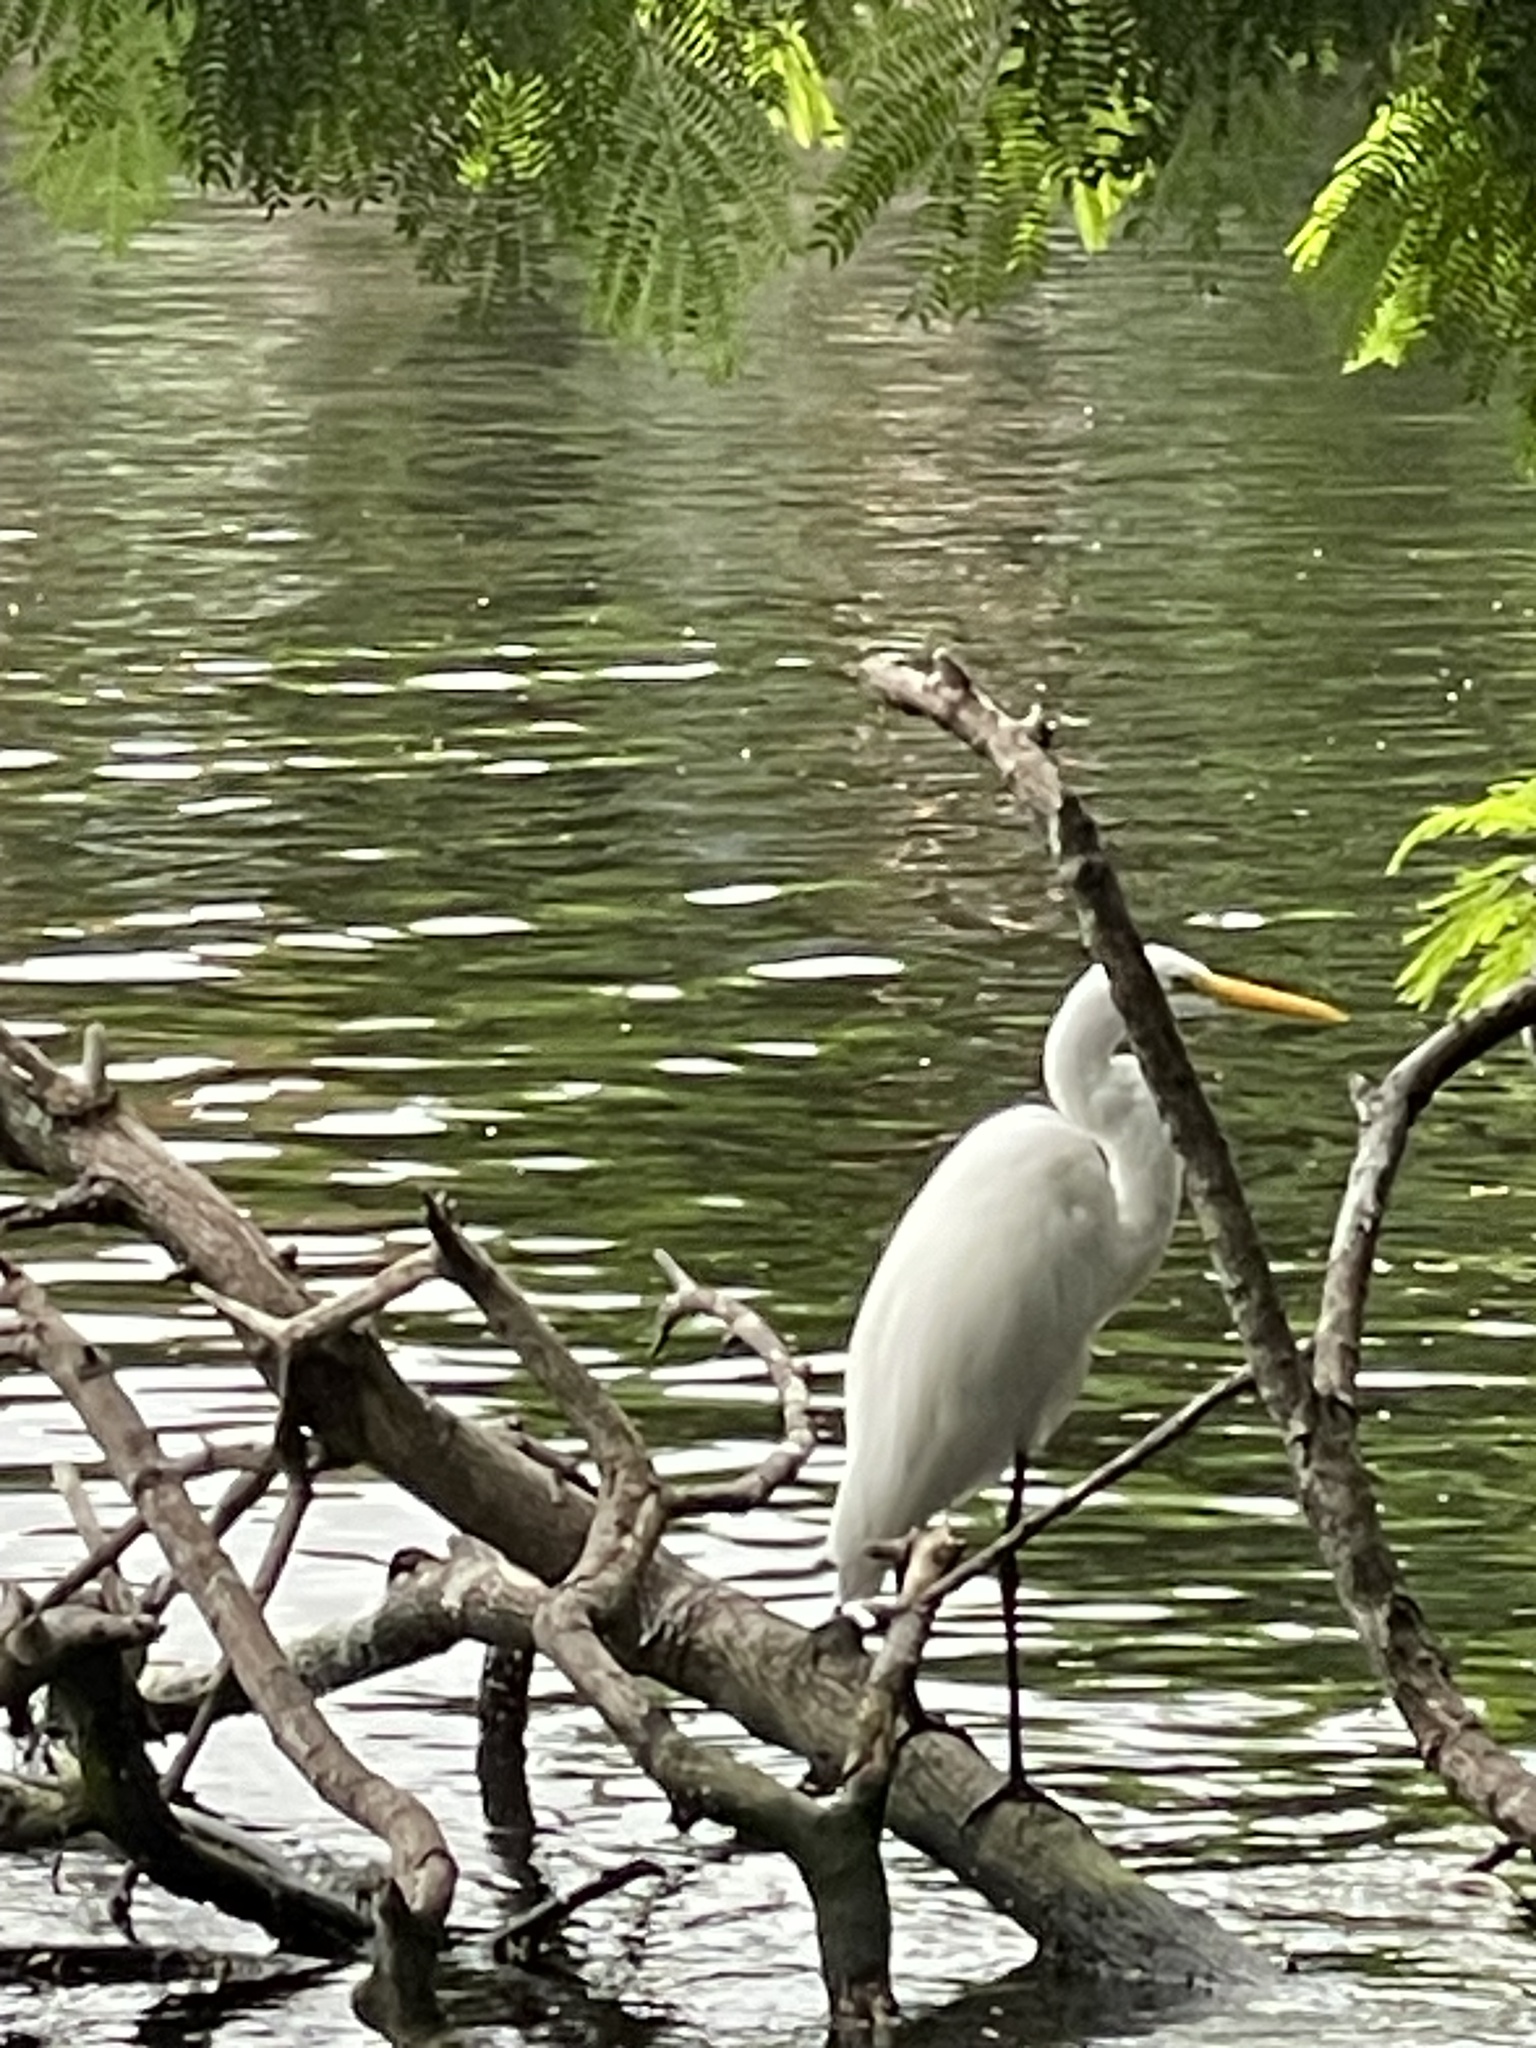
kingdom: Animalia
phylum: Chordata
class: Aves
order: Pelecaniformes
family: Ardeidae
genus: Ardea
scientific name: Ardea alba
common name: Great egret
